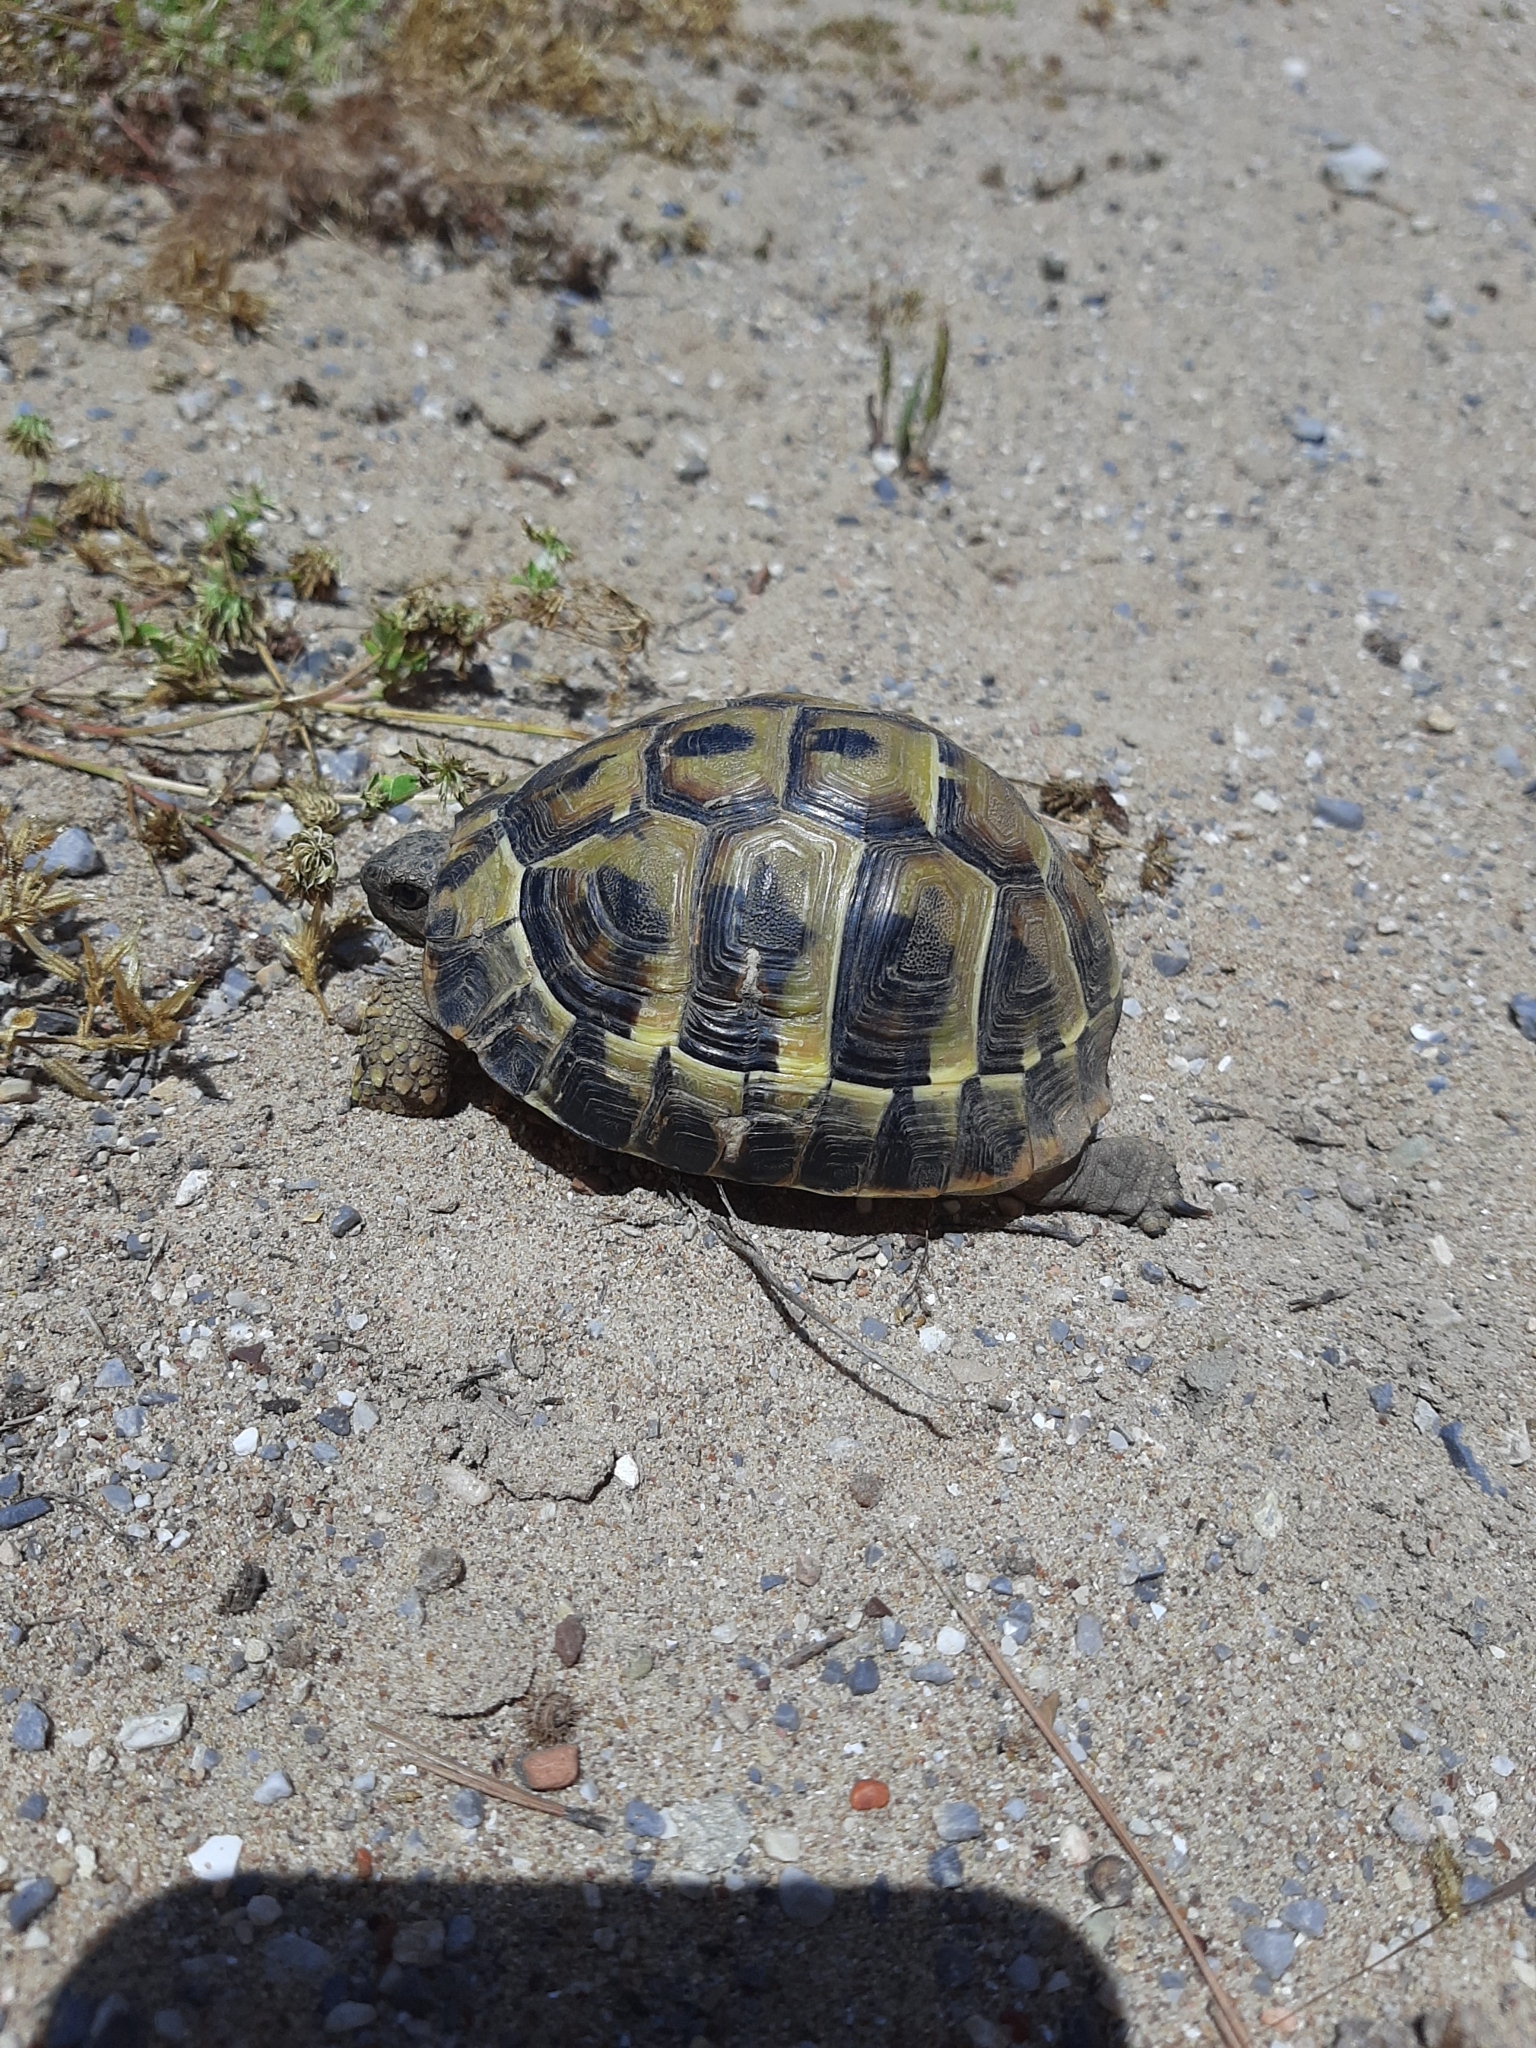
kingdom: Animalia
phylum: Chordata
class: Testudines
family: Testudinidae
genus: Testudo
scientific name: Testudo hermanni
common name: Hermann's tortoise
